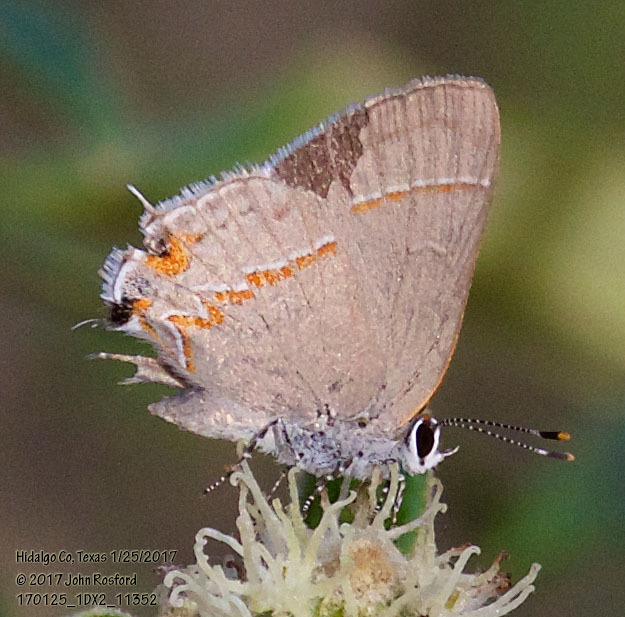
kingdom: Animalia
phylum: Arthropoda
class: Insecta
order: Lepidoptera
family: Lycaenidae
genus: Electrostrymon
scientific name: Electrostrymon endymion
